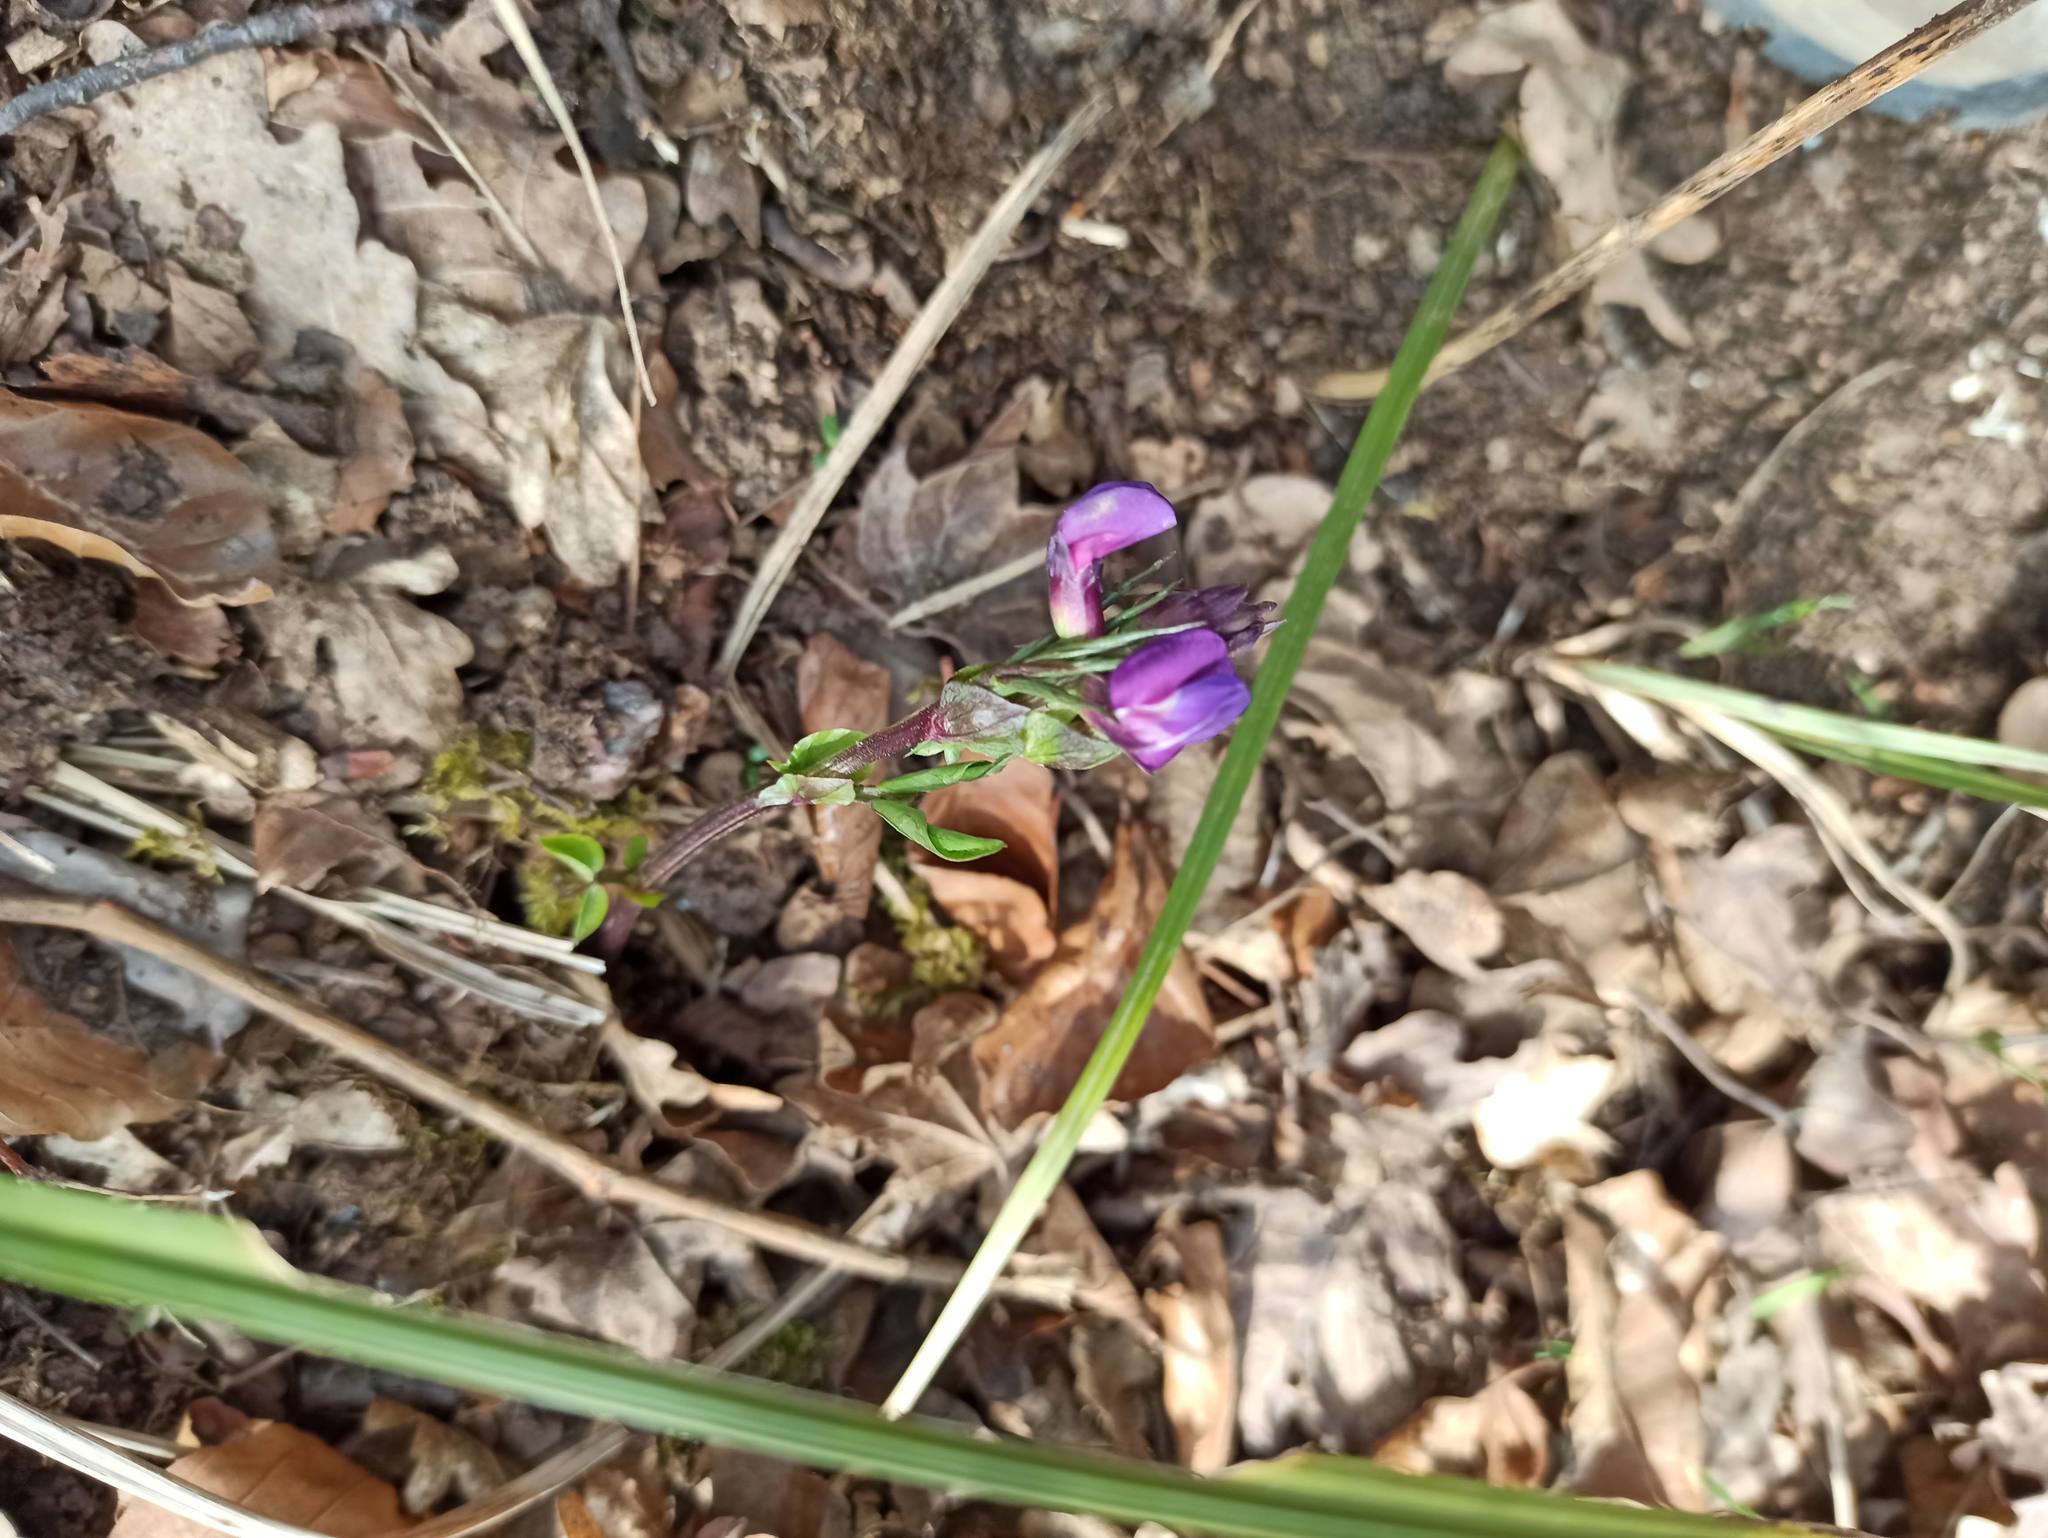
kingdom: Plantae
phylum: Tracheophyta
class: Magnoliopsida
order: Fabales
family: Fabaceae
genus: Lathyrus
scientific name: Lathyrus vernus
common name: Spring pea
